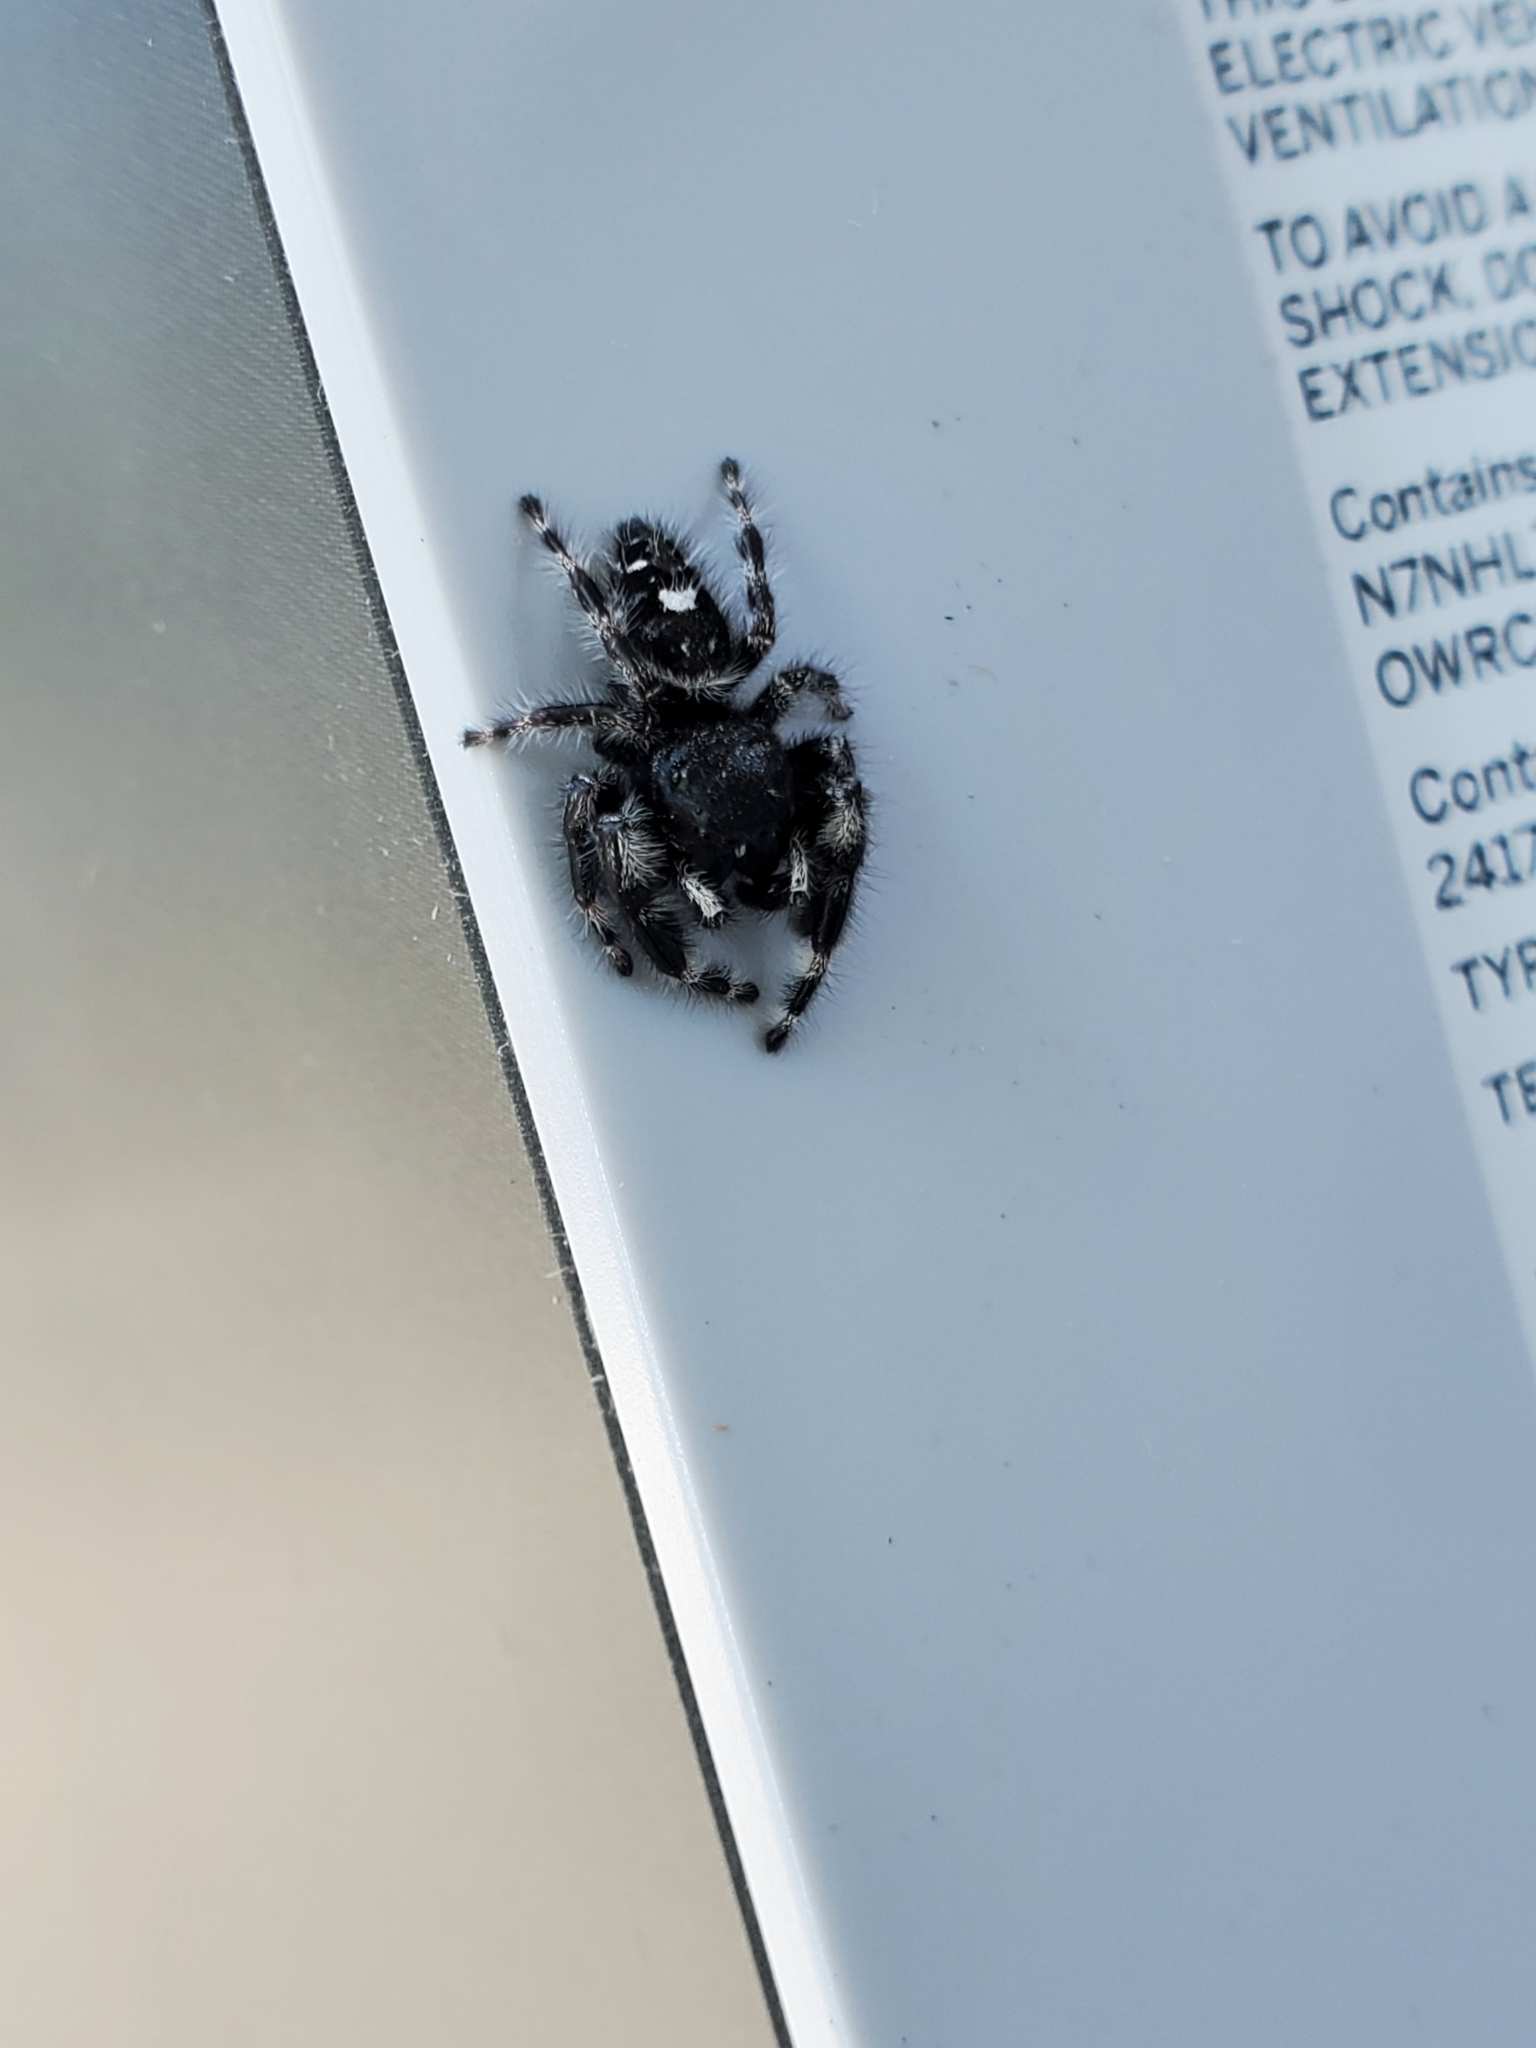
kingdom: Animalia
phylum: Arthropoda
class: Arachnida
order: Araneae
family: Salticidae
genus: Phidippus
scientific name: Phidippus audax
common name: Bold jumper
